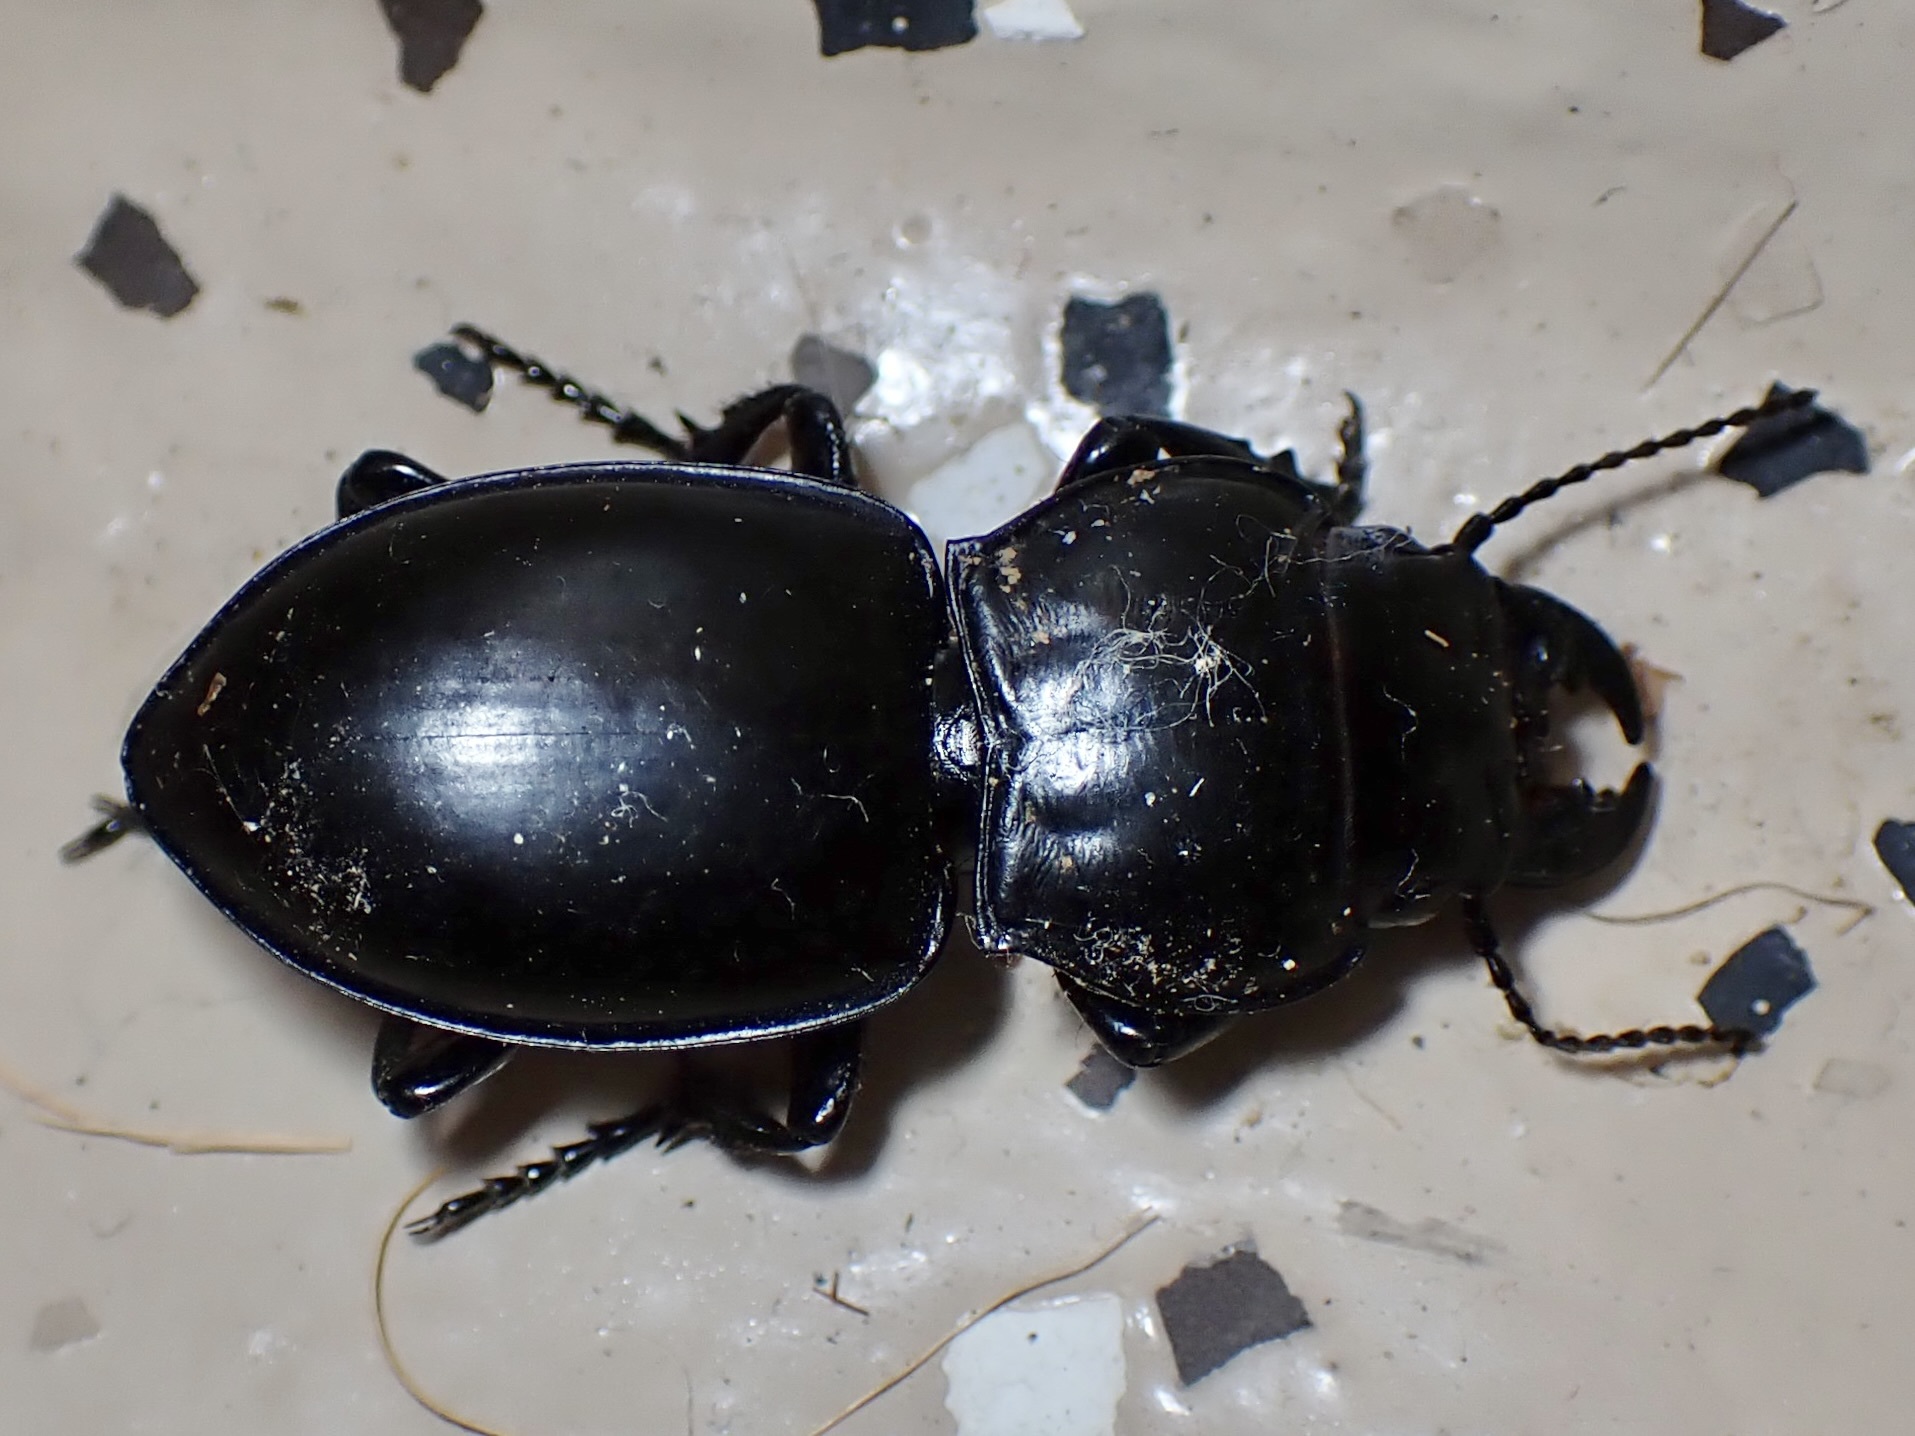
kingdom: Animalia
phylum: Arthropoda
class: Insecta
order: Coleoptera
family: Carabidae
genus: Pasimachus
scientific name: Pasimachus californicus
